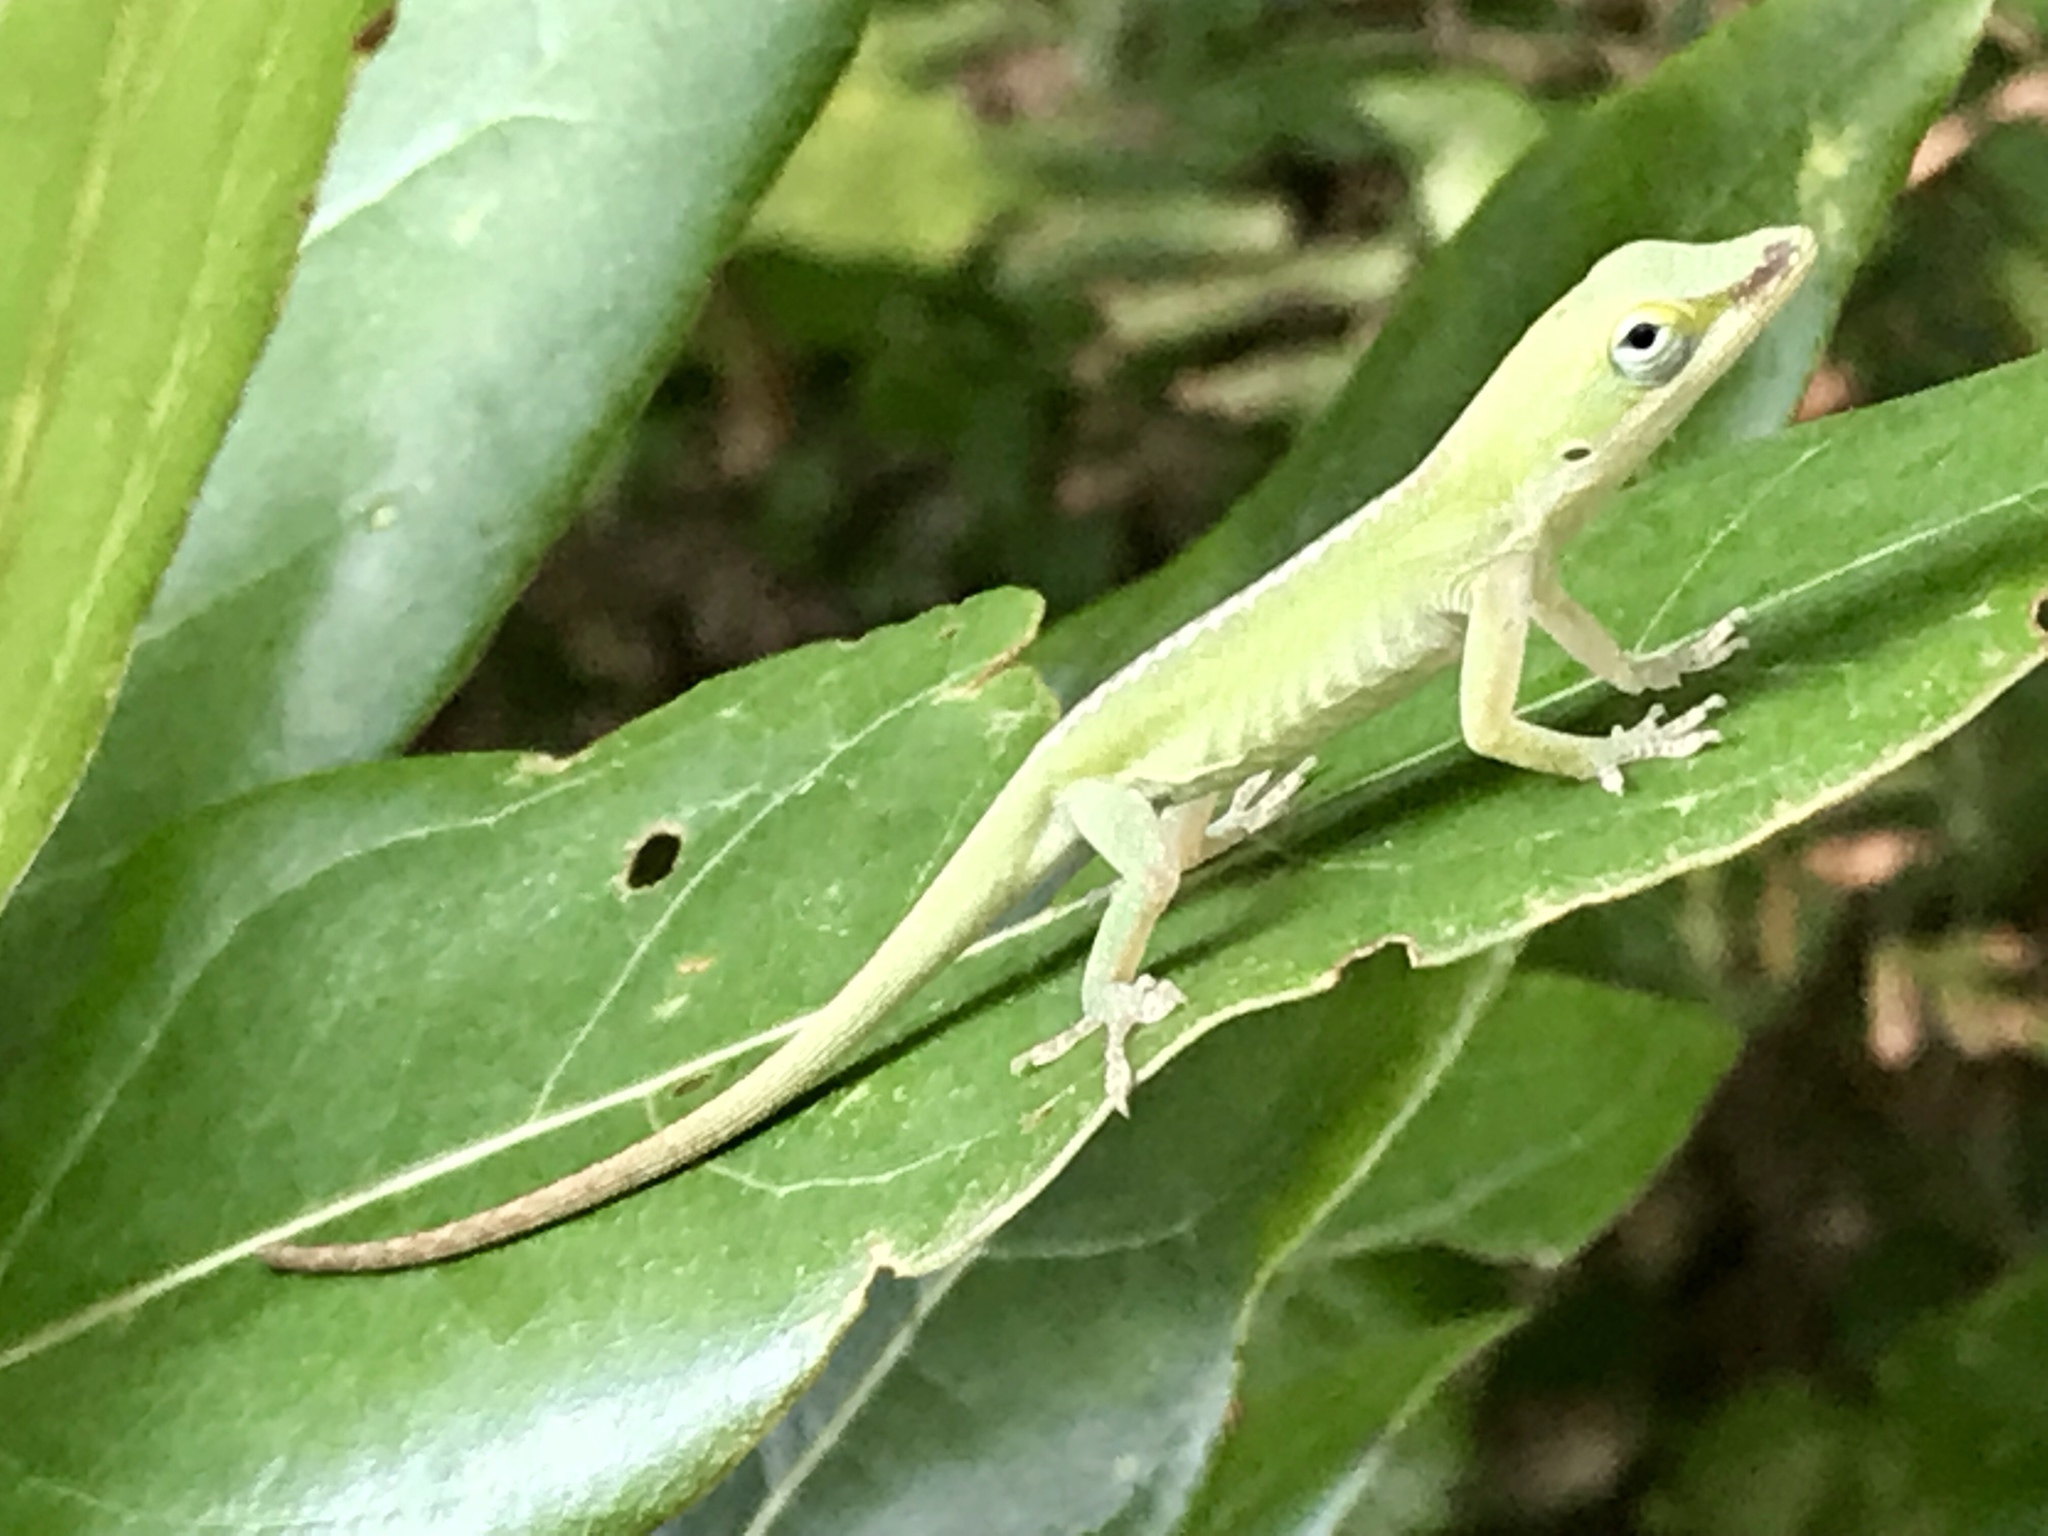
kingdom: Animalia
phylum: Chordata
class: Squamata
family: Dactyloidae
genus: Anolis
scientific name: Anolis carolinensis
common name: Green anole
